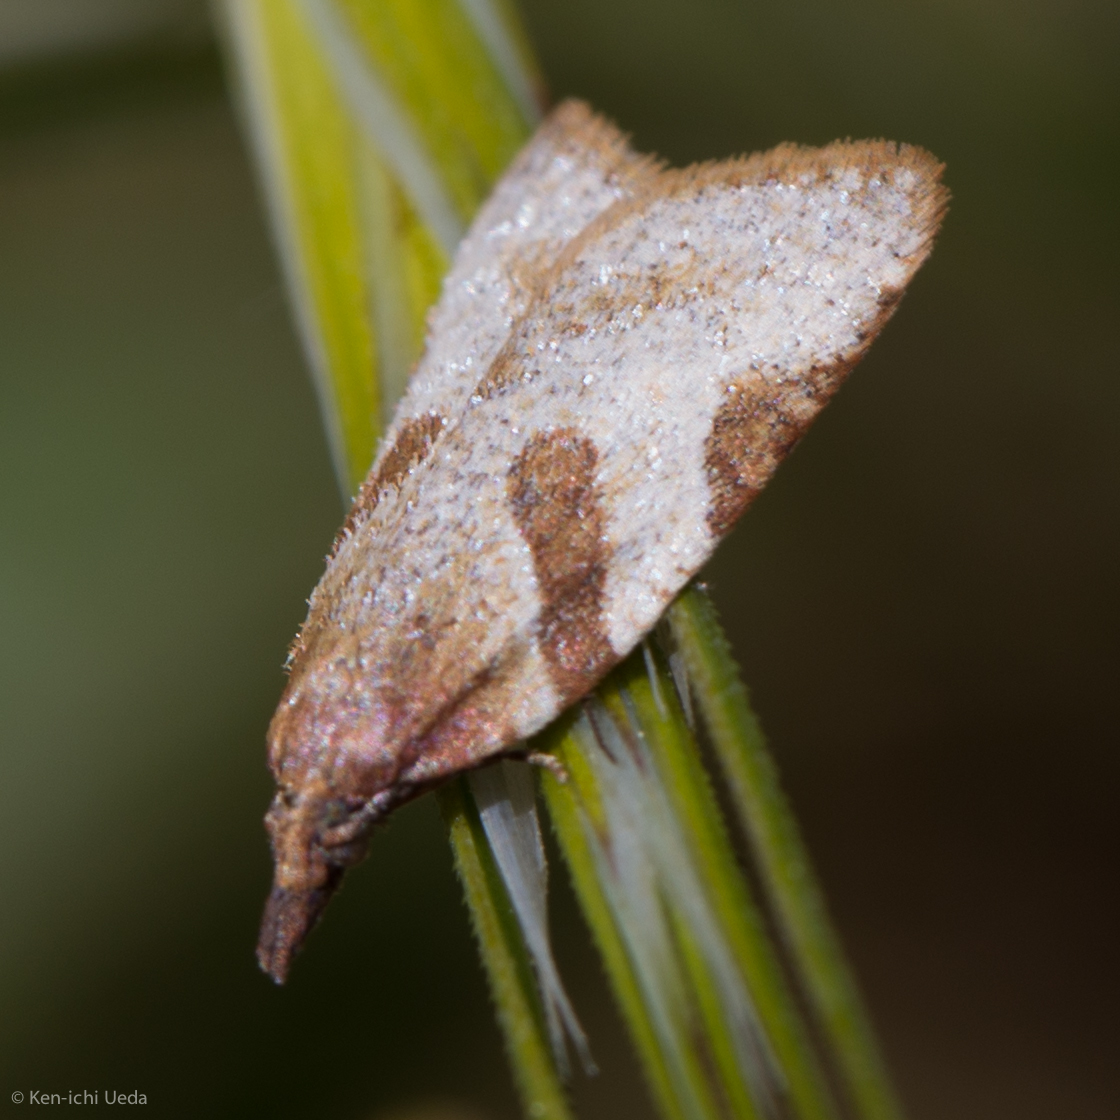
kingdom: Animalia
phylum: Arthropoda
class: Insecta
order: Lepidoptera
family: Tortricidae
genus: Sparganothis
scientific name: Sparganothis senecionana
